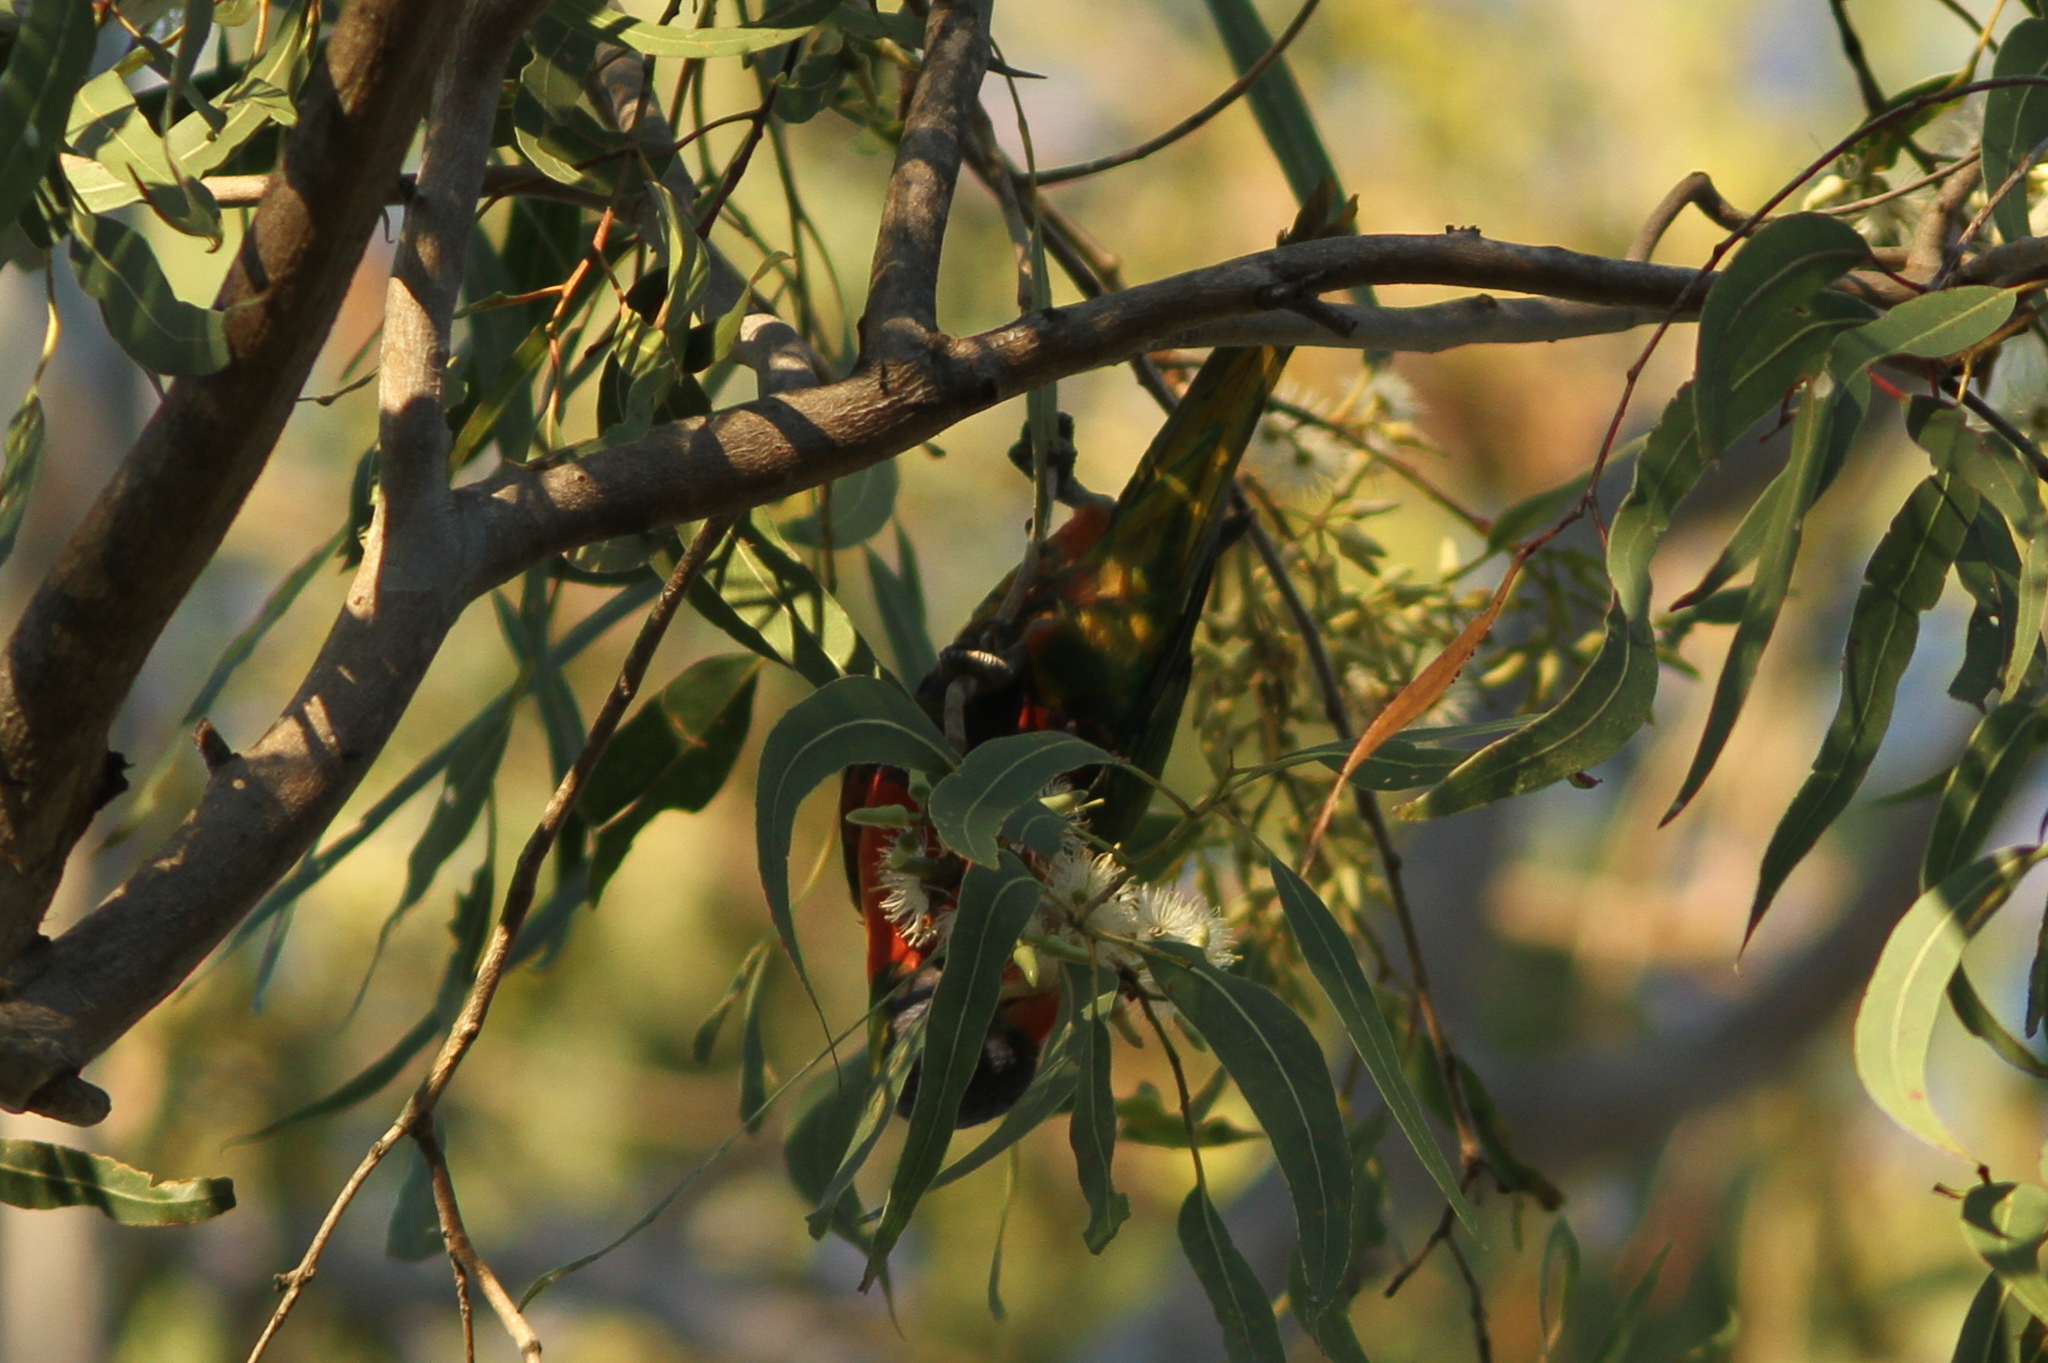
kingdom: Animalia
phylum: Chordata
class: Aves
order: Psittaciformes
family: Psittacidae
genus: Trichoglossus
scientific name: Trichoglossus haematodus
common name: Coconut lorikeet
